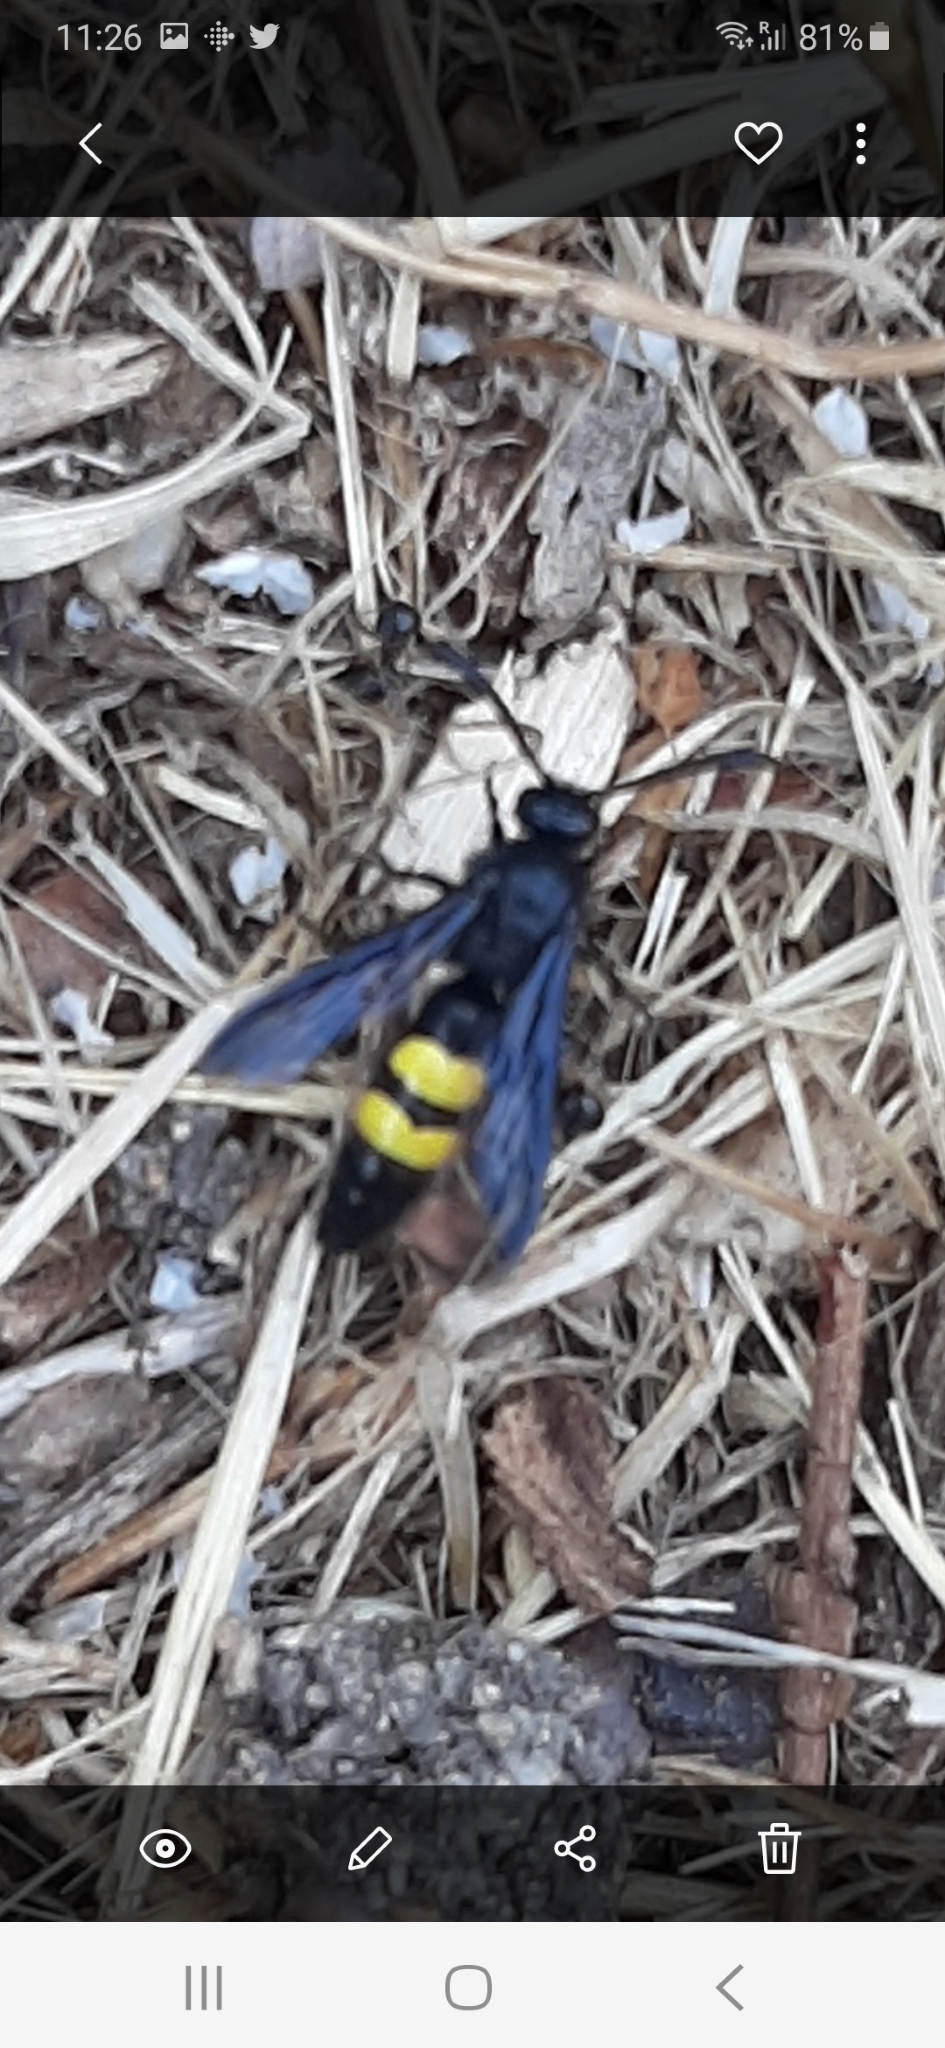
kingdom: Animalia
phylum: Arthropoda
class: Insecta
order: Hymenoptera
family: Scoliidae
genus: Scolia
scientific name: Scolia hirta
